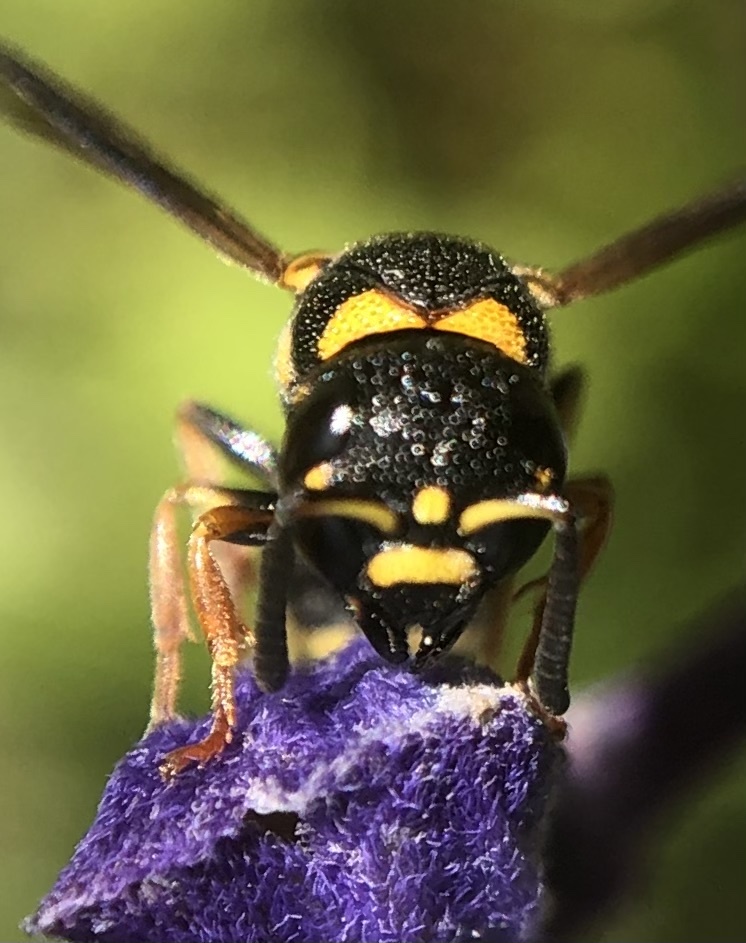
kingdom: Animalia
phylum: Arthropoda
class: Insecta
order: Hymenoptera
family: Eumenidae
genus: Parancistrocerus
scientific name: Parancistrocerus perennis
